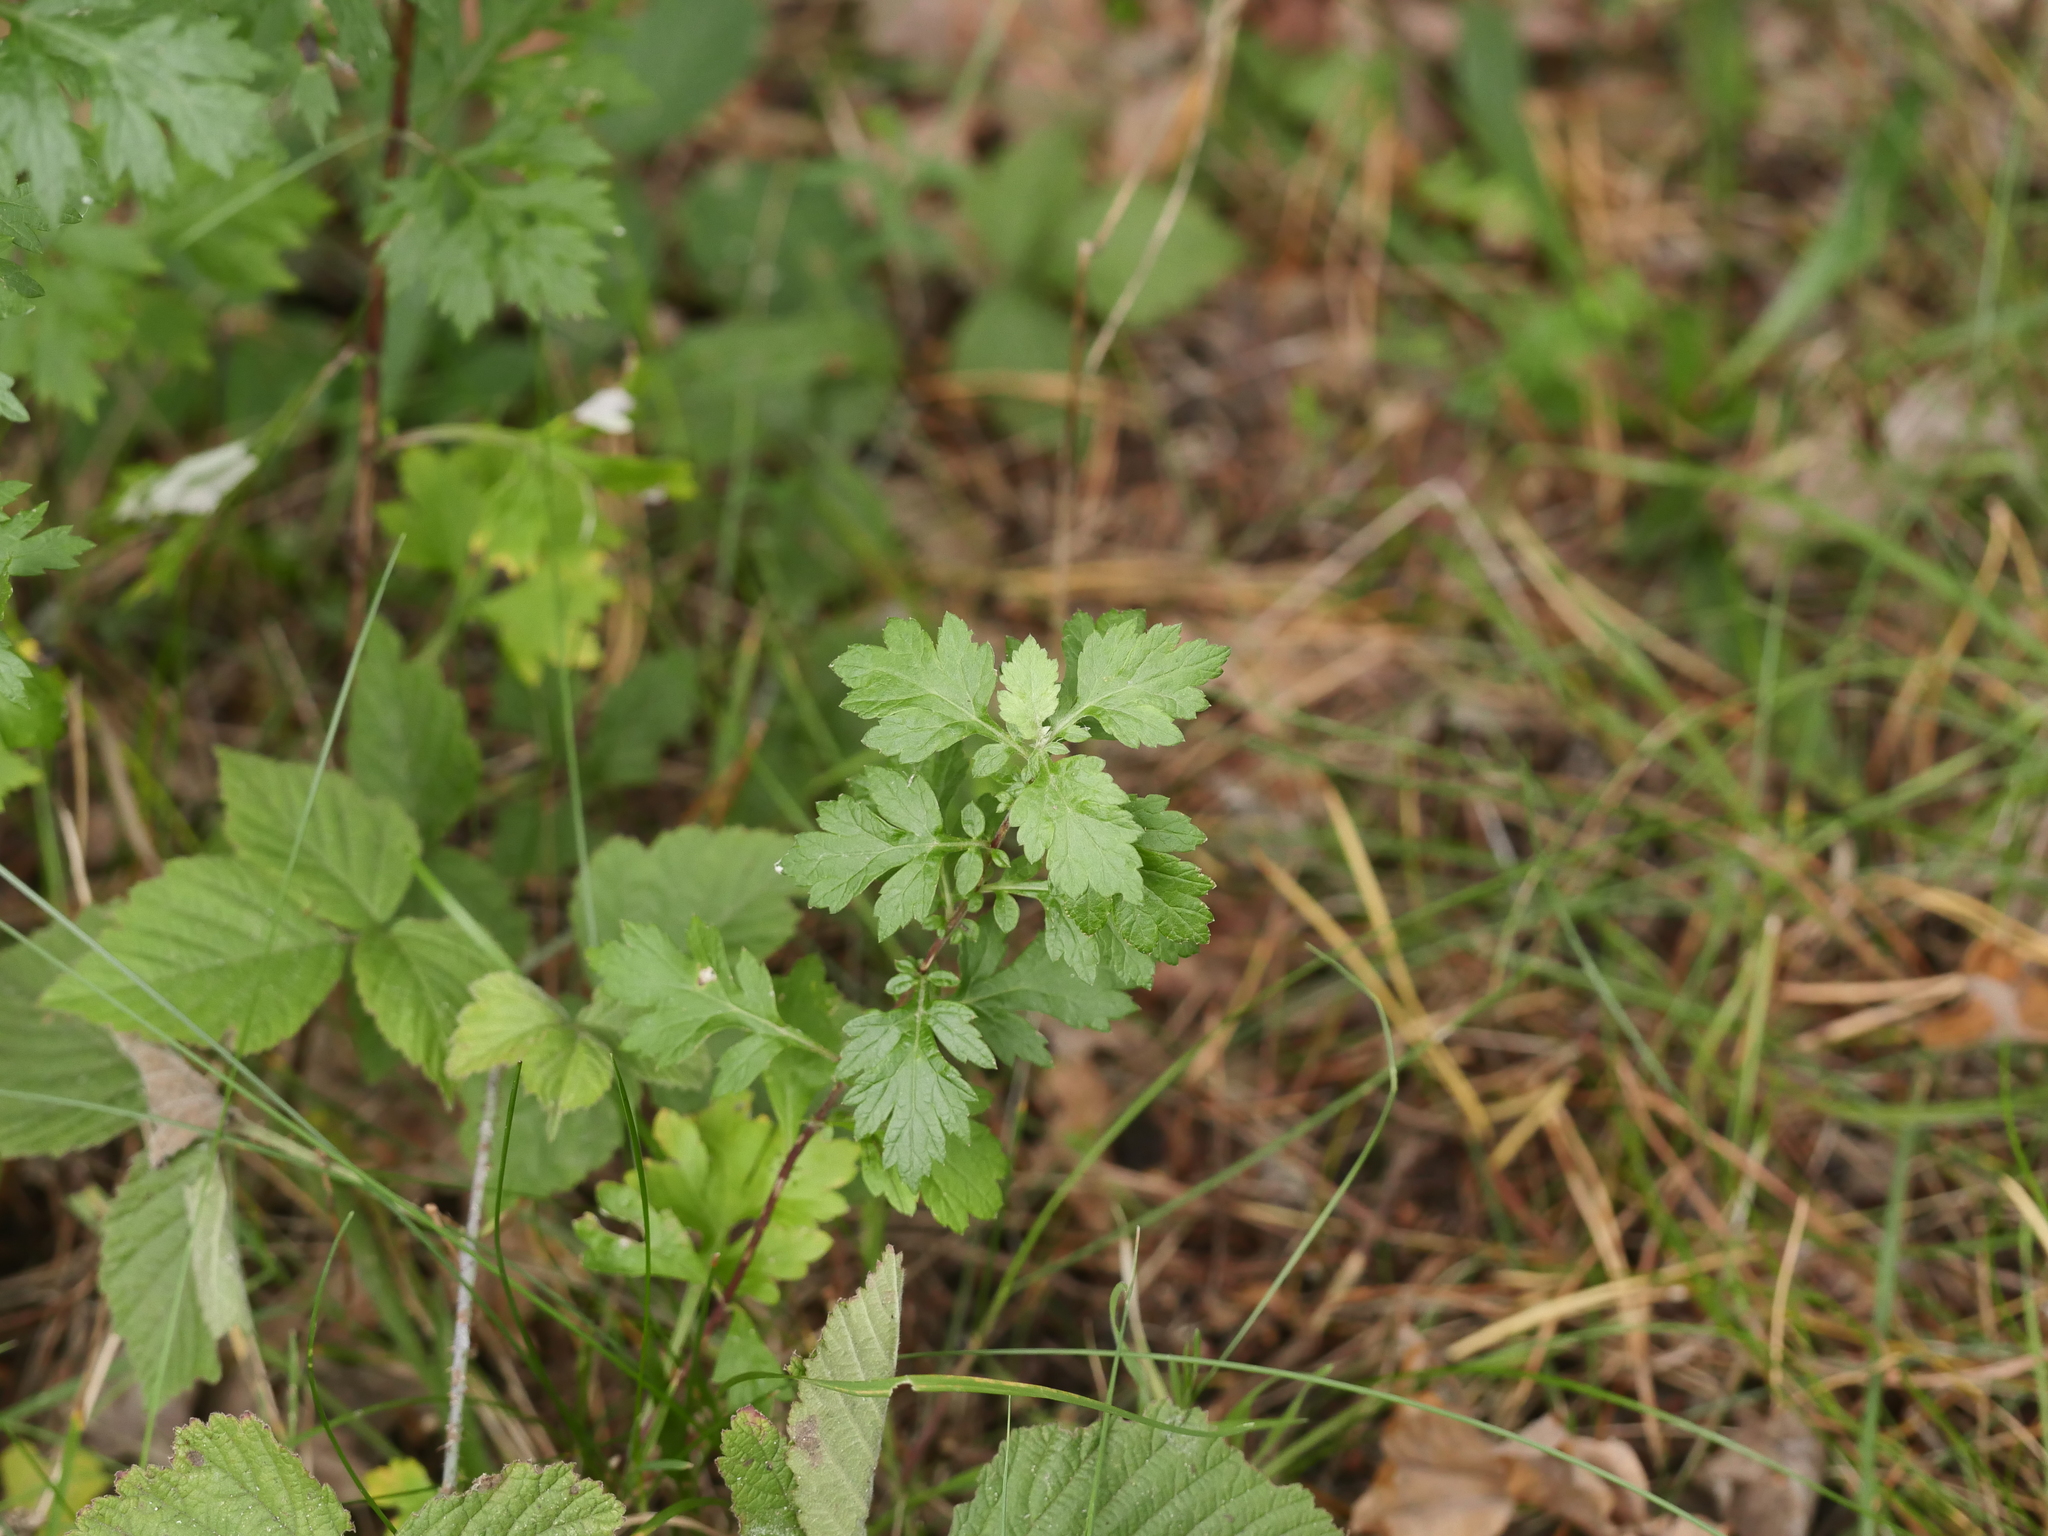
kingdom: Plantae
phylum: Tracheophyta
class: Magnoliopsida
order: Asterales
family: Asteraceae
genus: Artemisia
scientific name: Artemisia vulgaris
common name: Mugwort
